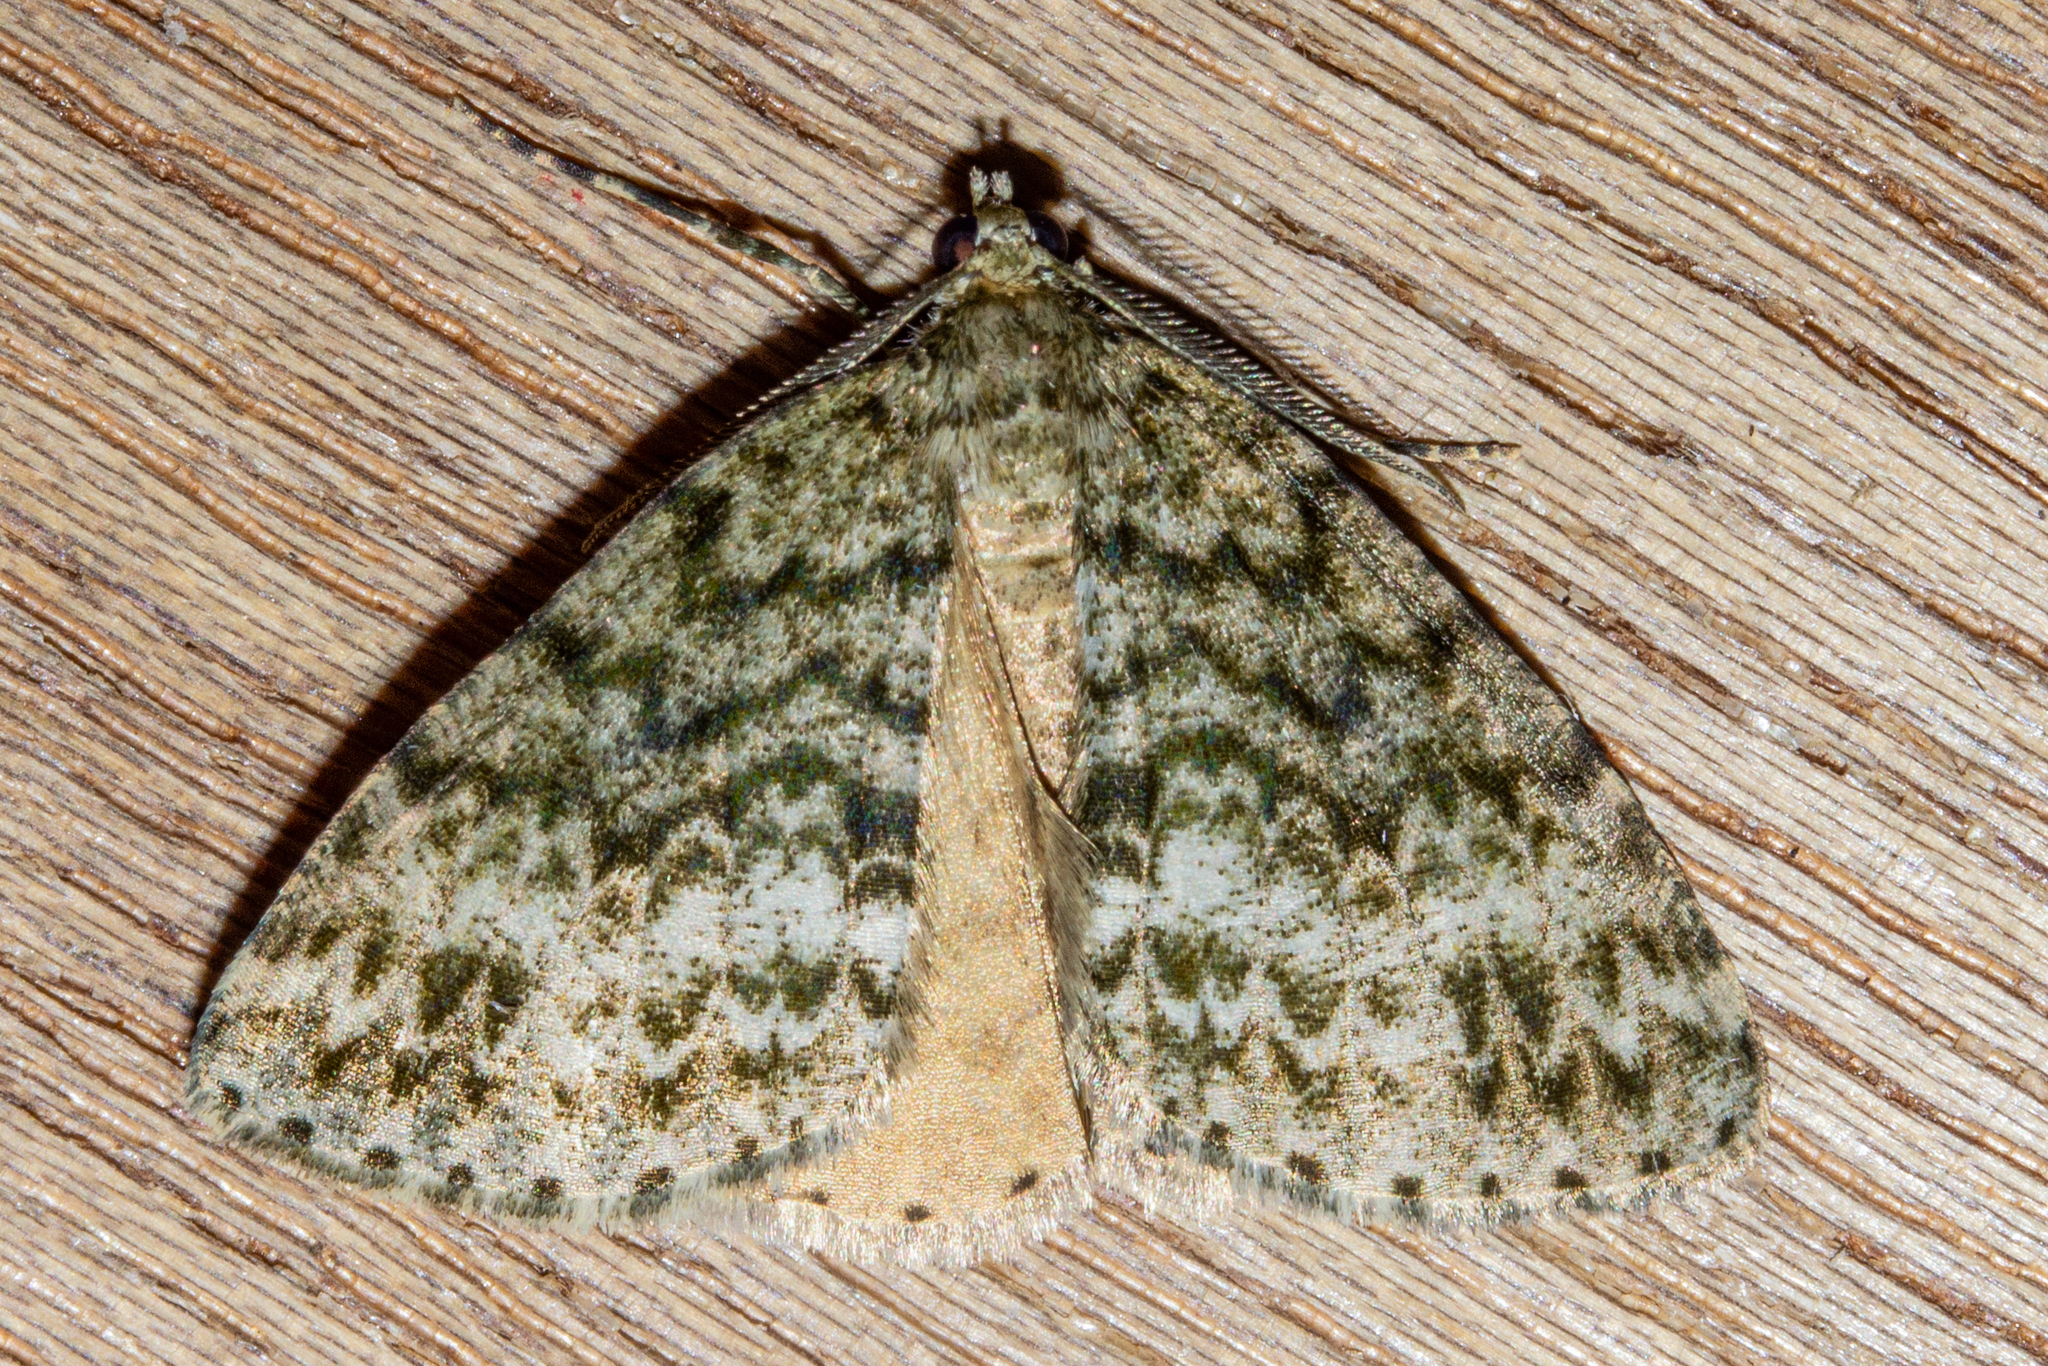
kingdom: Animalia
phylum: Arthropoda
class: Insecta
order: Lepidoptera
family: Geometridae
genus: Pseudocoremia
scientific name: Pseudocoremia indistincta
